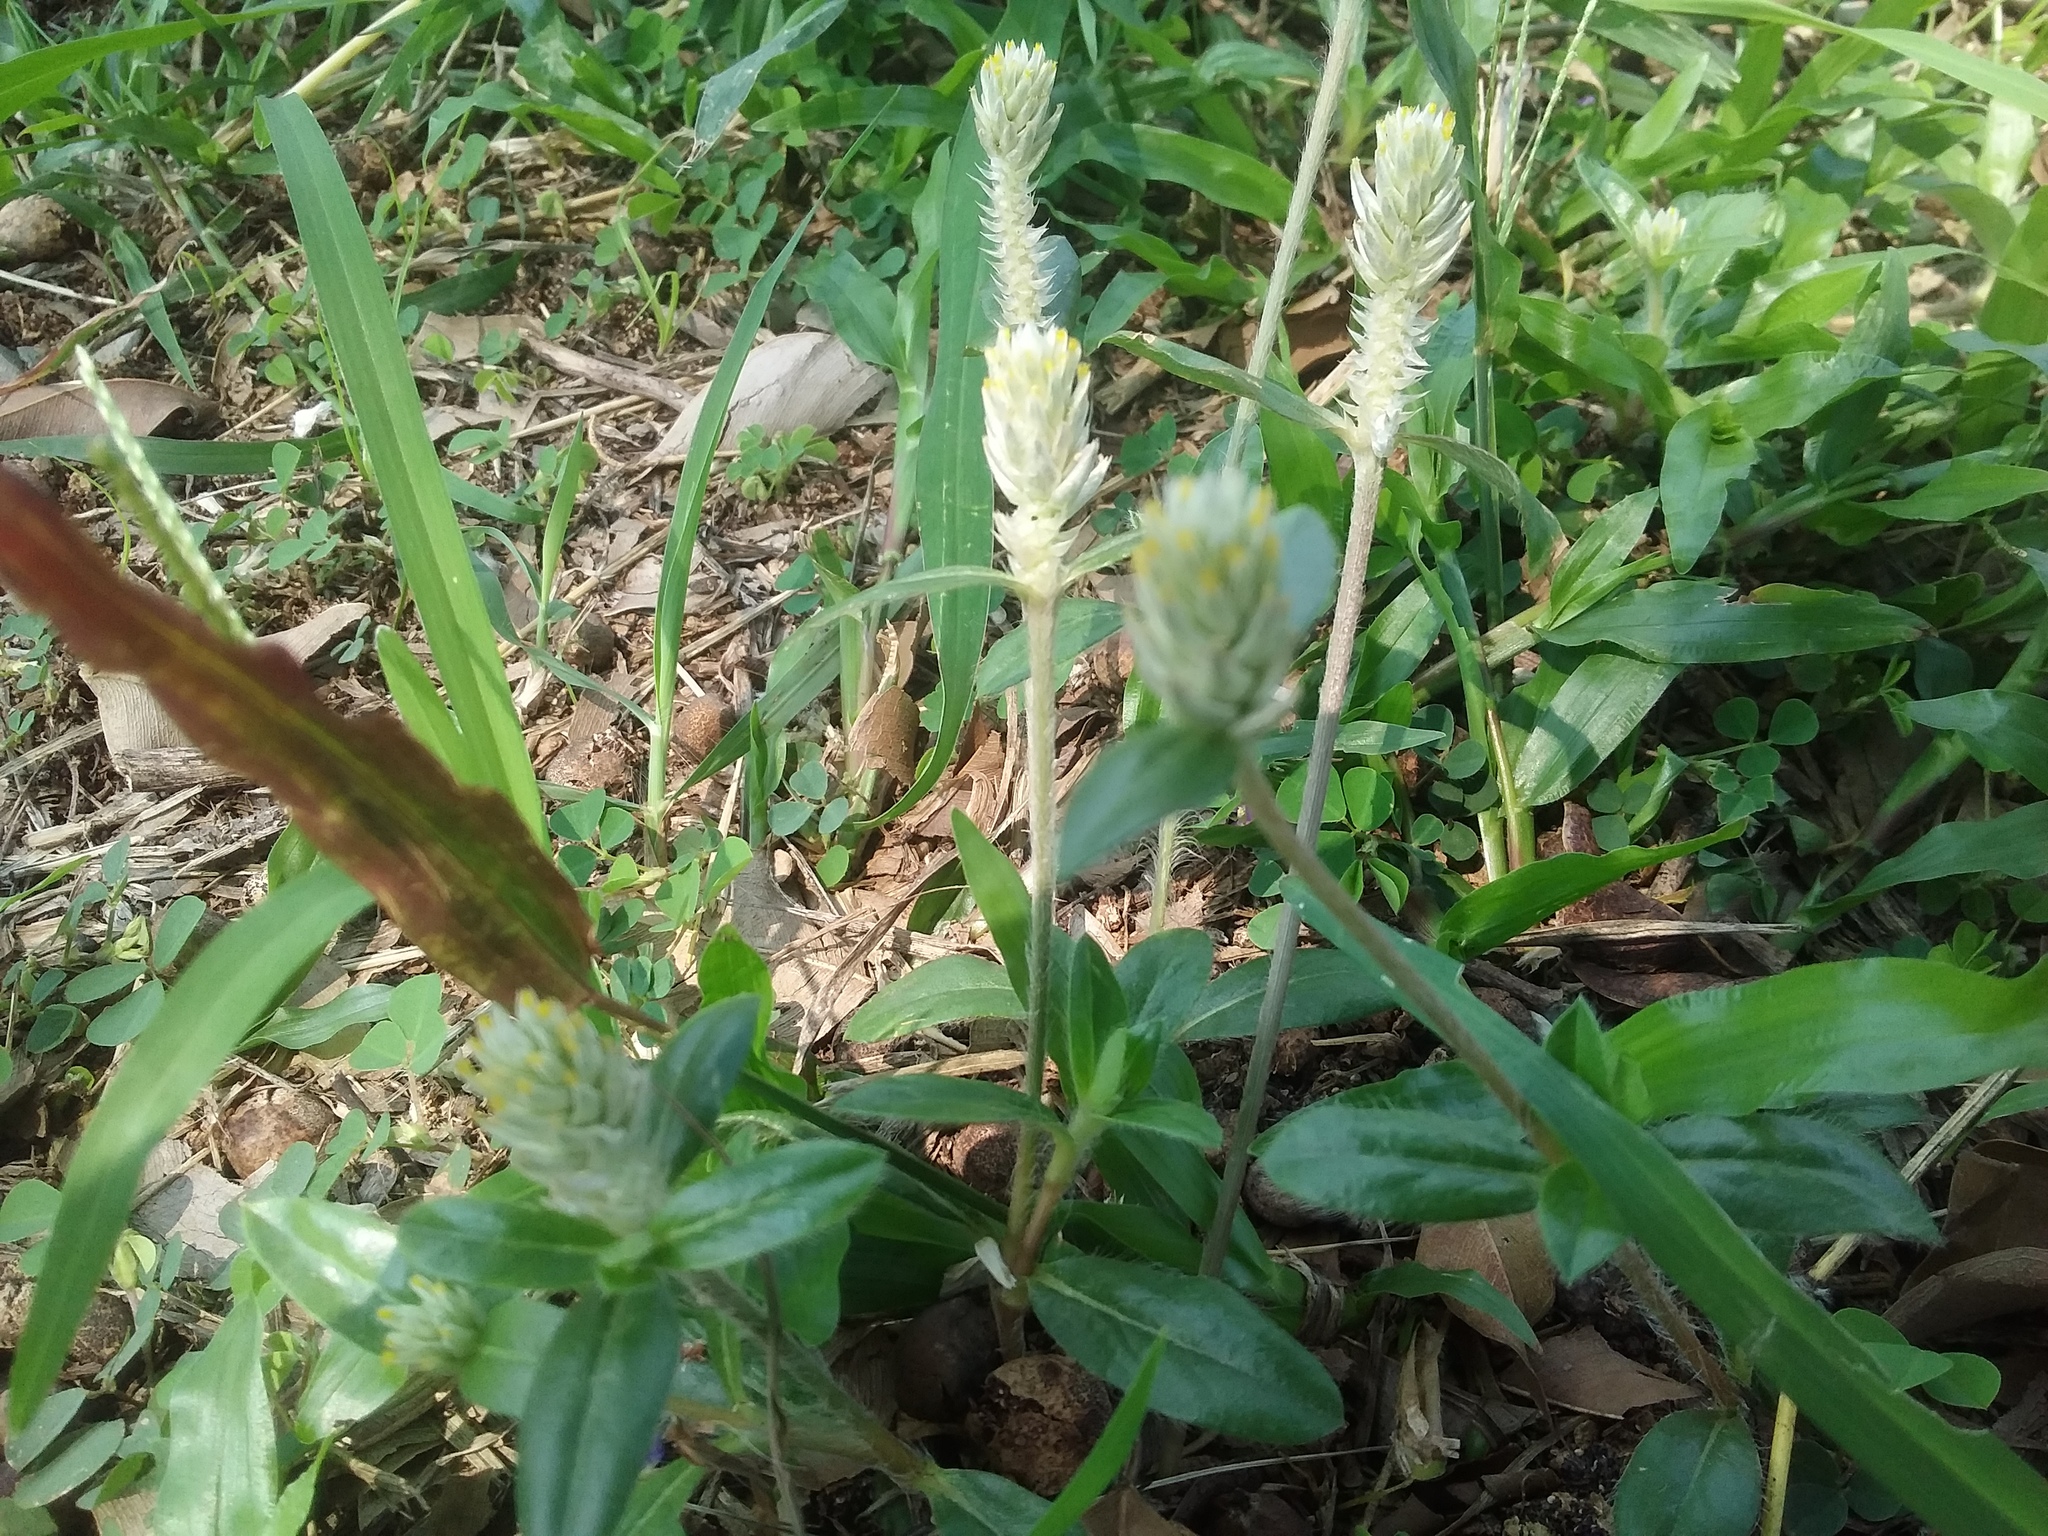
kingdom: Plantae
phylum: Tracheophyta
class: Magnoliopsida
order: Caryophyllales
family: Amaranthaceae
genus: Gomphrena
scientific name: Gomphrena celosioides
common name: Gomphrena-weed
